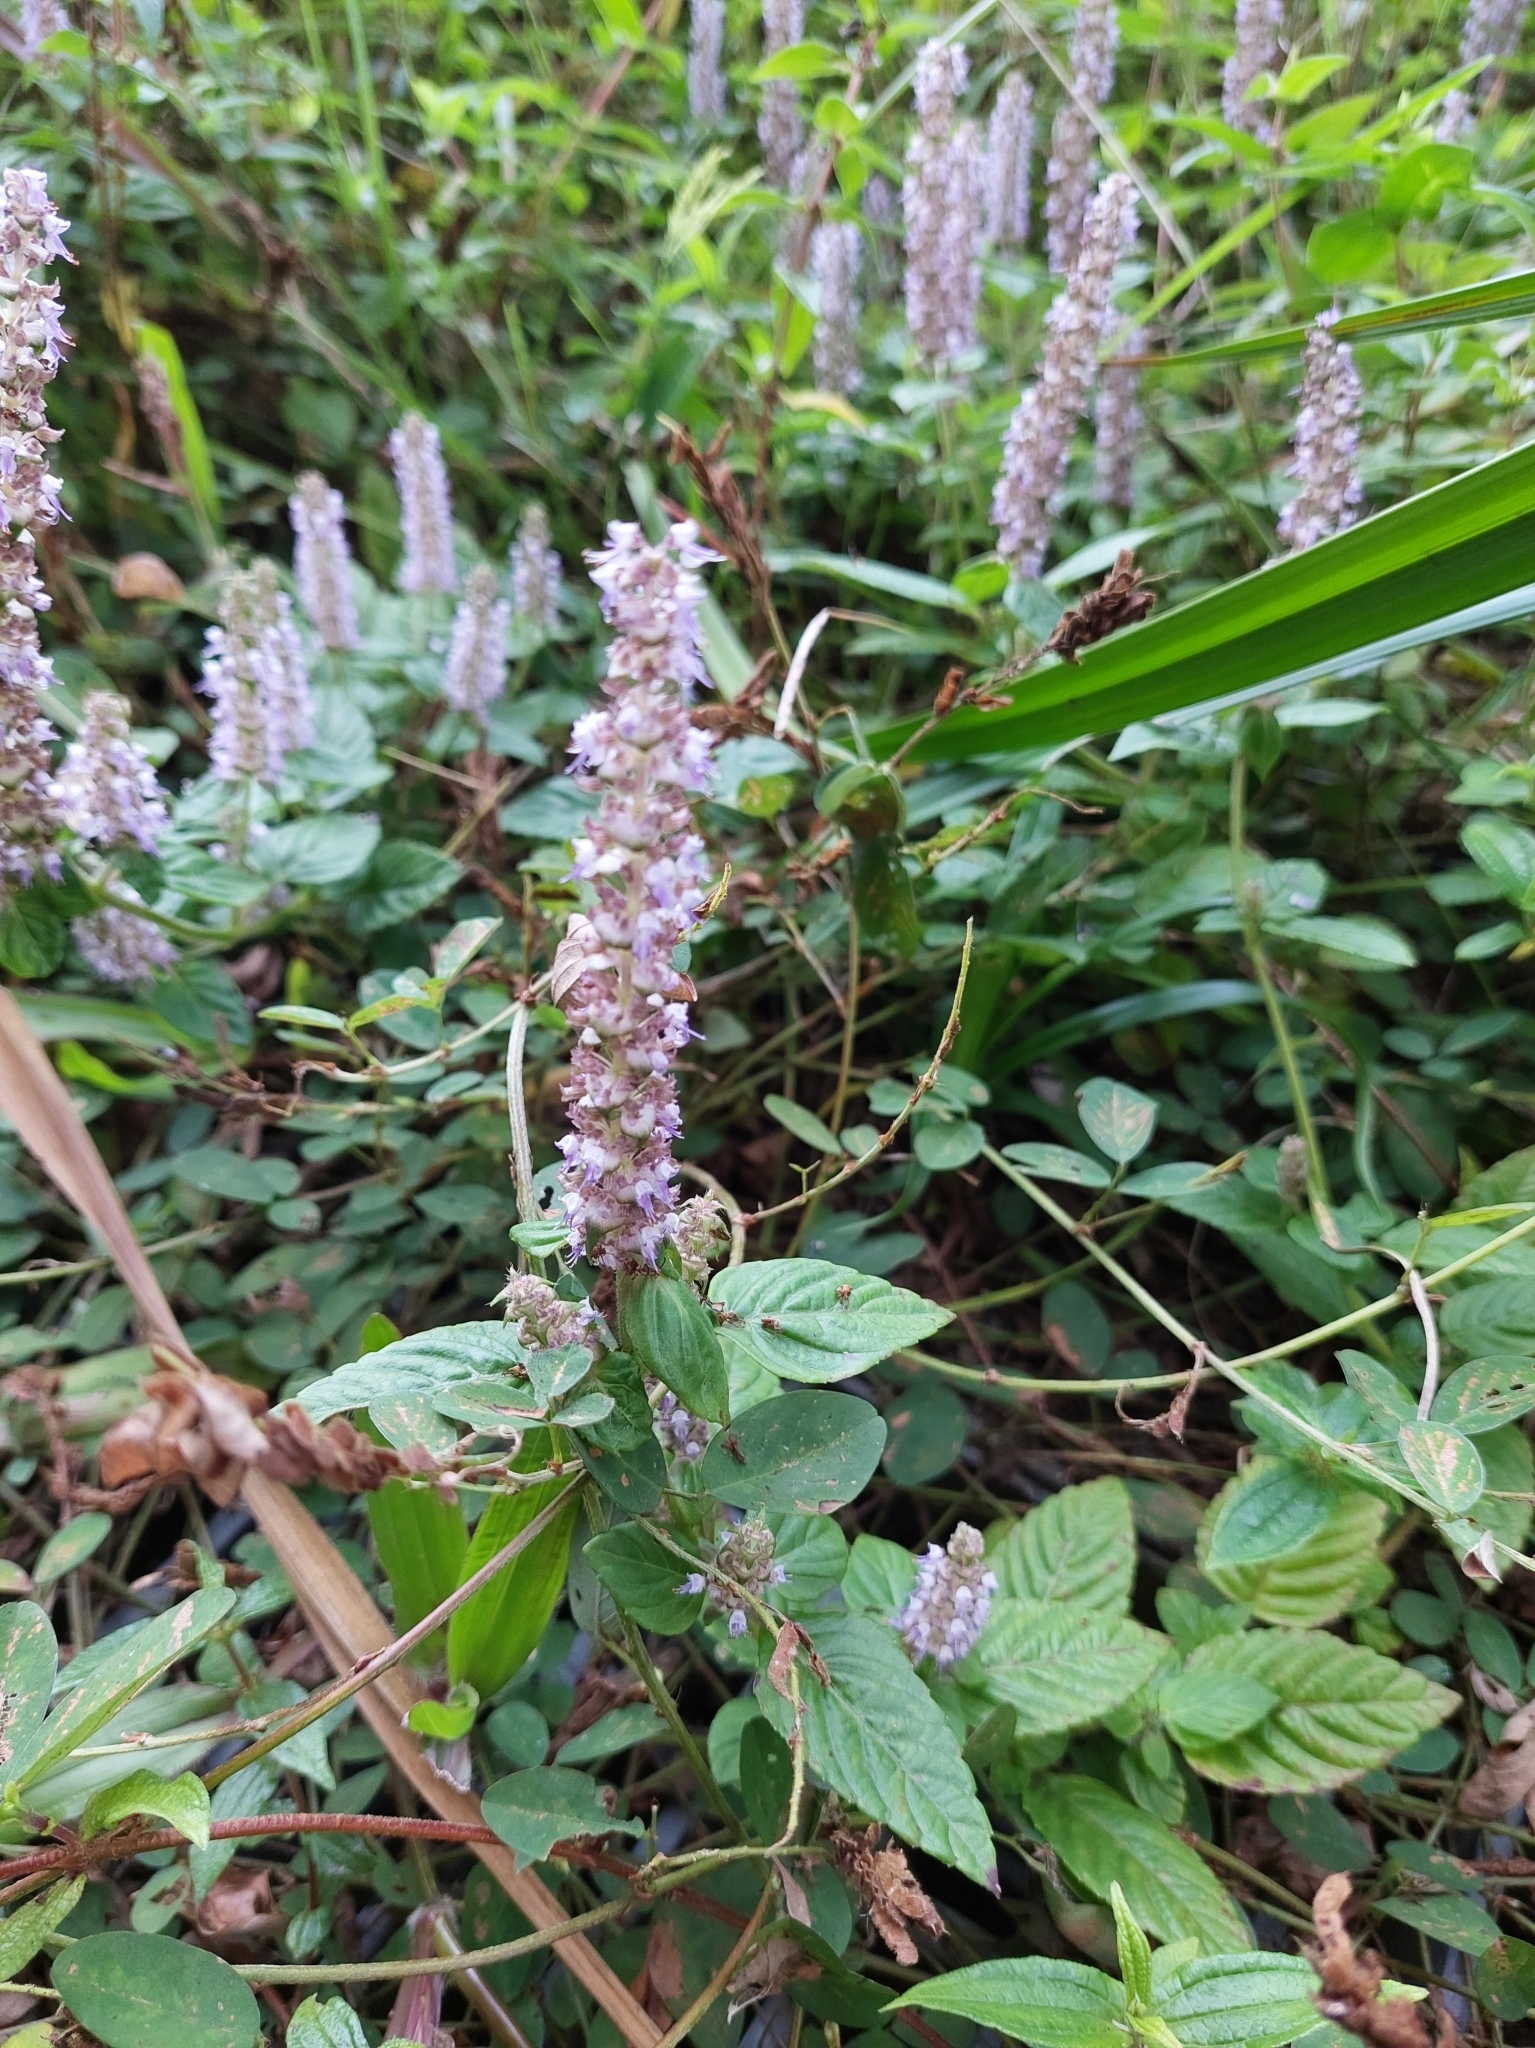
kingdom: Plantae
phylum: Tracheophyta
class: Magnoliopsida
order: Lamiales
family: Lamiaceae
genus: Platostoma
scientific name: Platostoma palustre
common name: Black cincau
